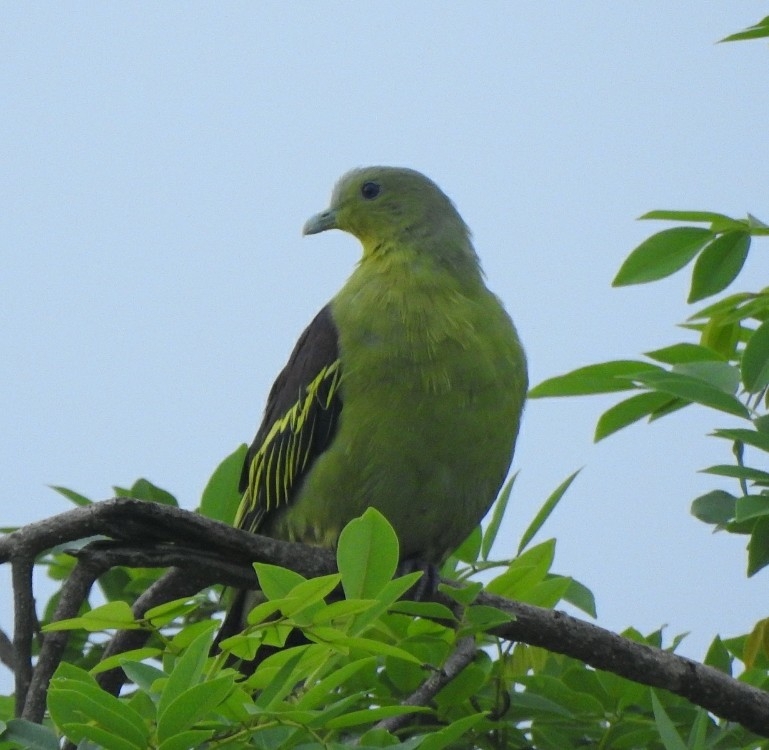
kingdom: Animalia
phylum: Chordata
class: Aves
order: Columbiformes
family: Columbidae
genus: Treron
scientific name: Treron affinis
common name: Grey-fronted green pigeon
